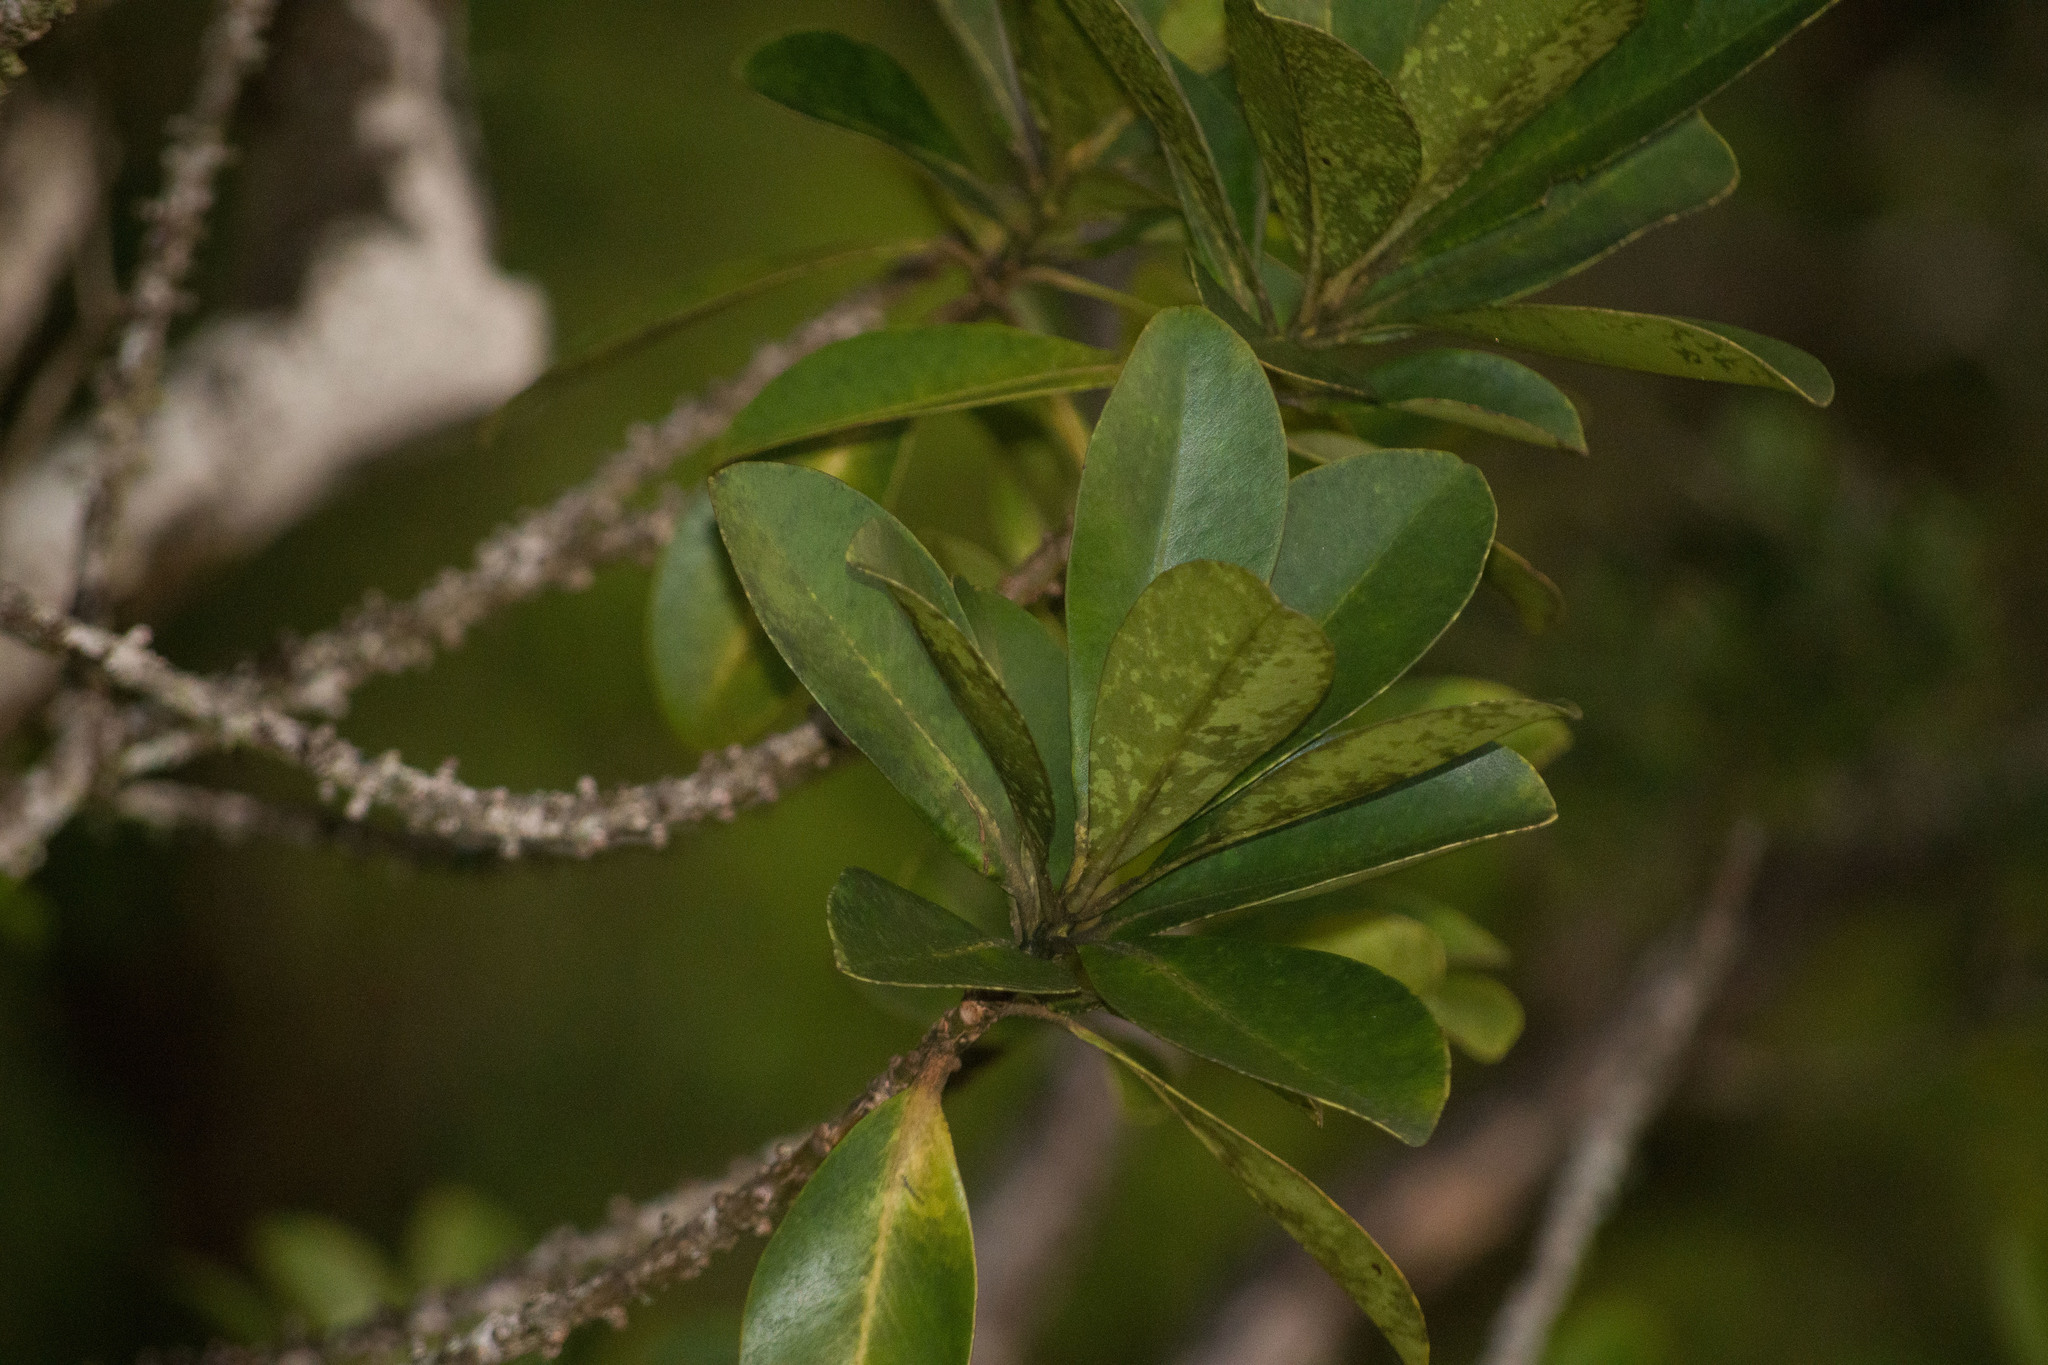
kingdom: Plantae
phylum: Tracheophyta
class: Magnoliopsida
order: Ericales
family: Primulaceae
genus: Myrsine
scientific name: Myrsine lessertiana
